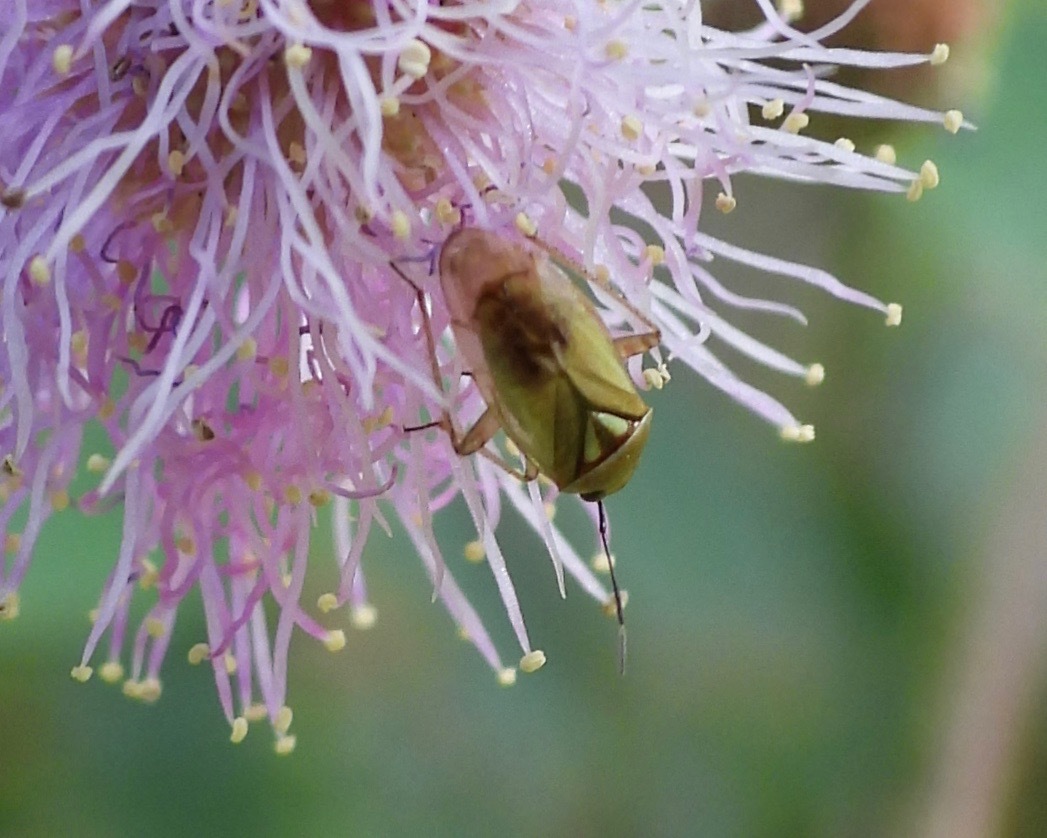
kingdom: Animalia
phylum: Arthropoda
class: Insecta
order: Hemiptera
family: Miridae
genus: Proba
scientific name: Proba vittiscutis
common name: Plant bug
